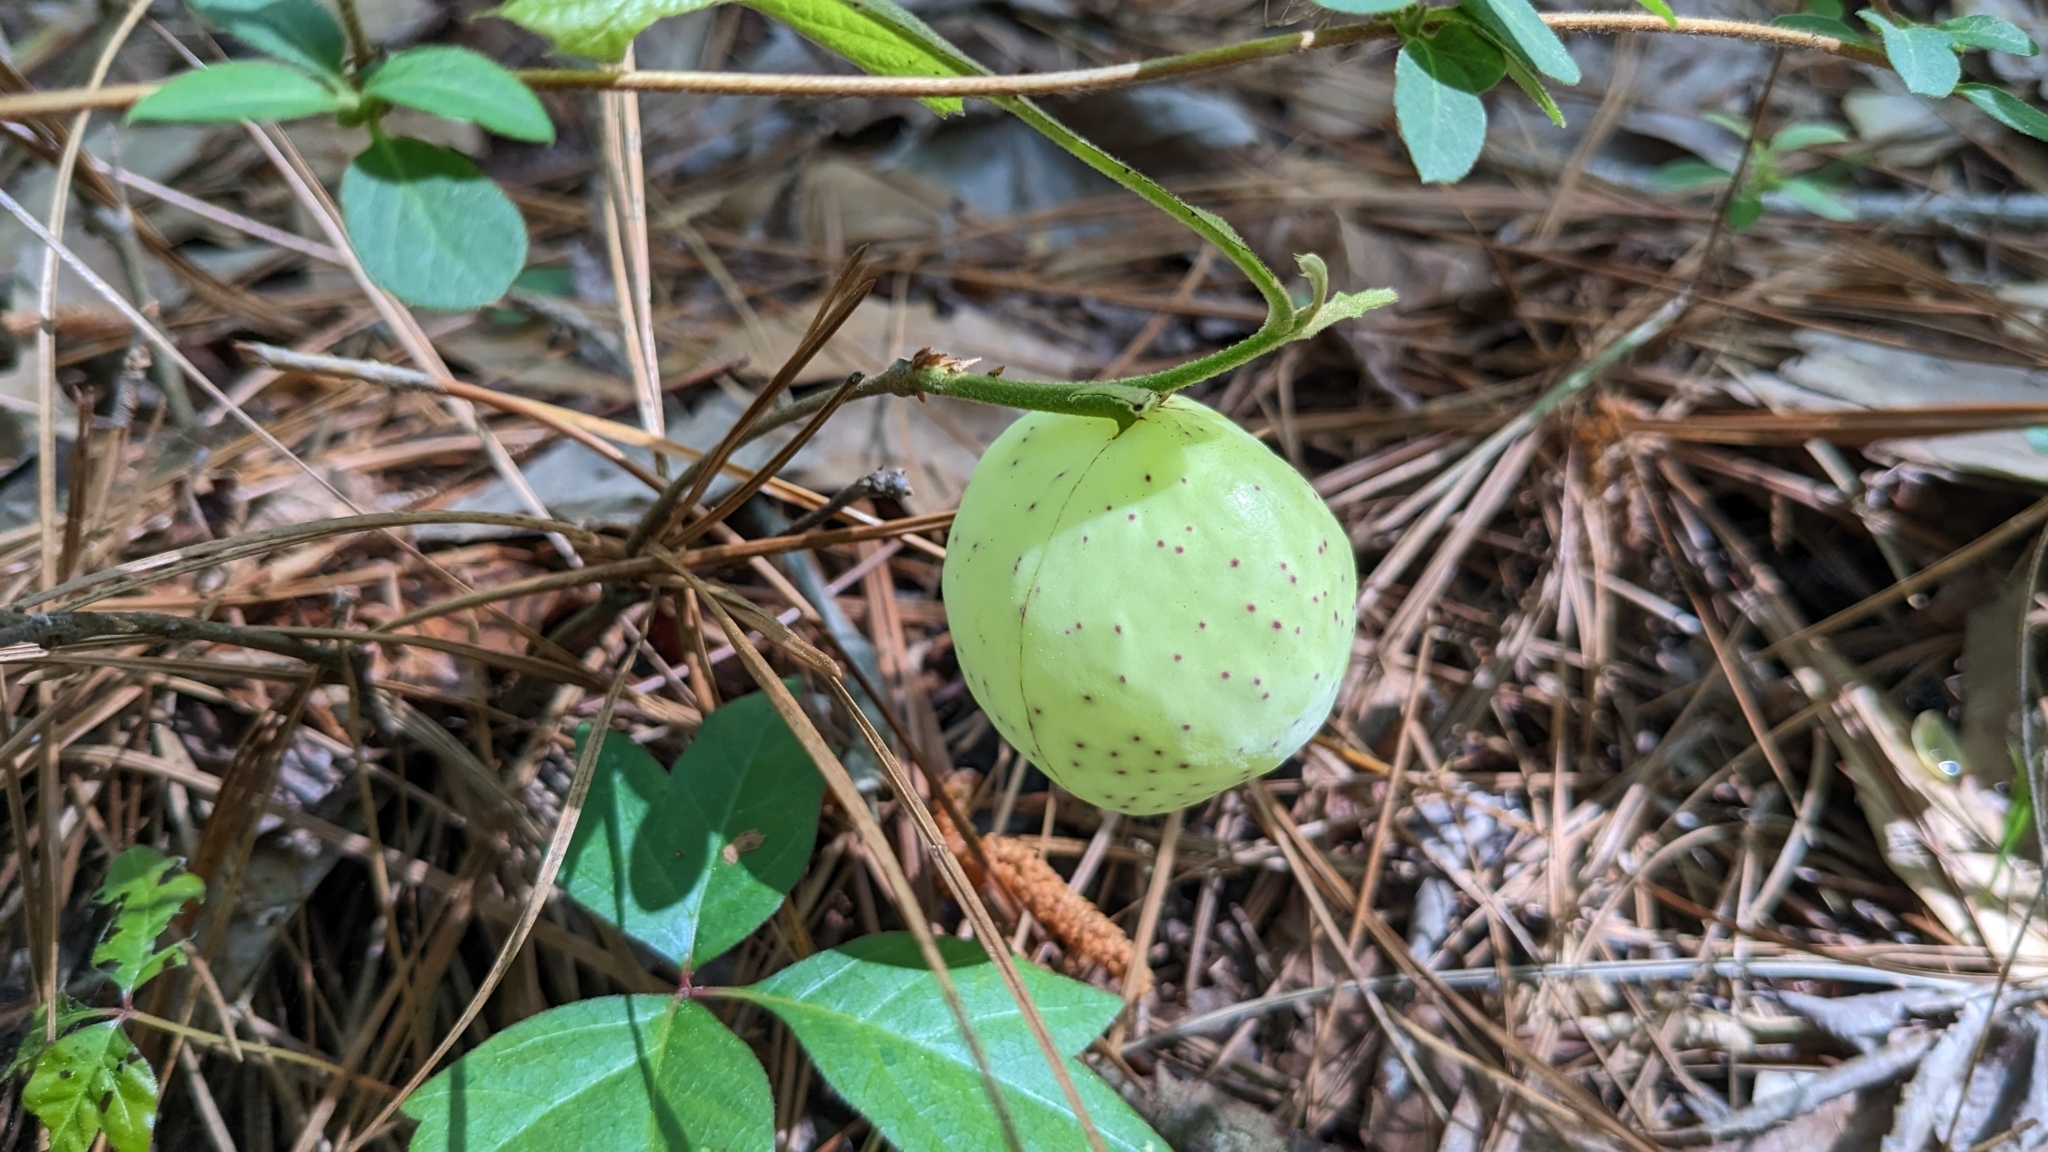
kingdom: Animalia
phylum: Arthropoda
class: Insecta
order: Hymenoptera
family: Cynipidae
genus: Amphibolips
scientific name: Amphibolips
